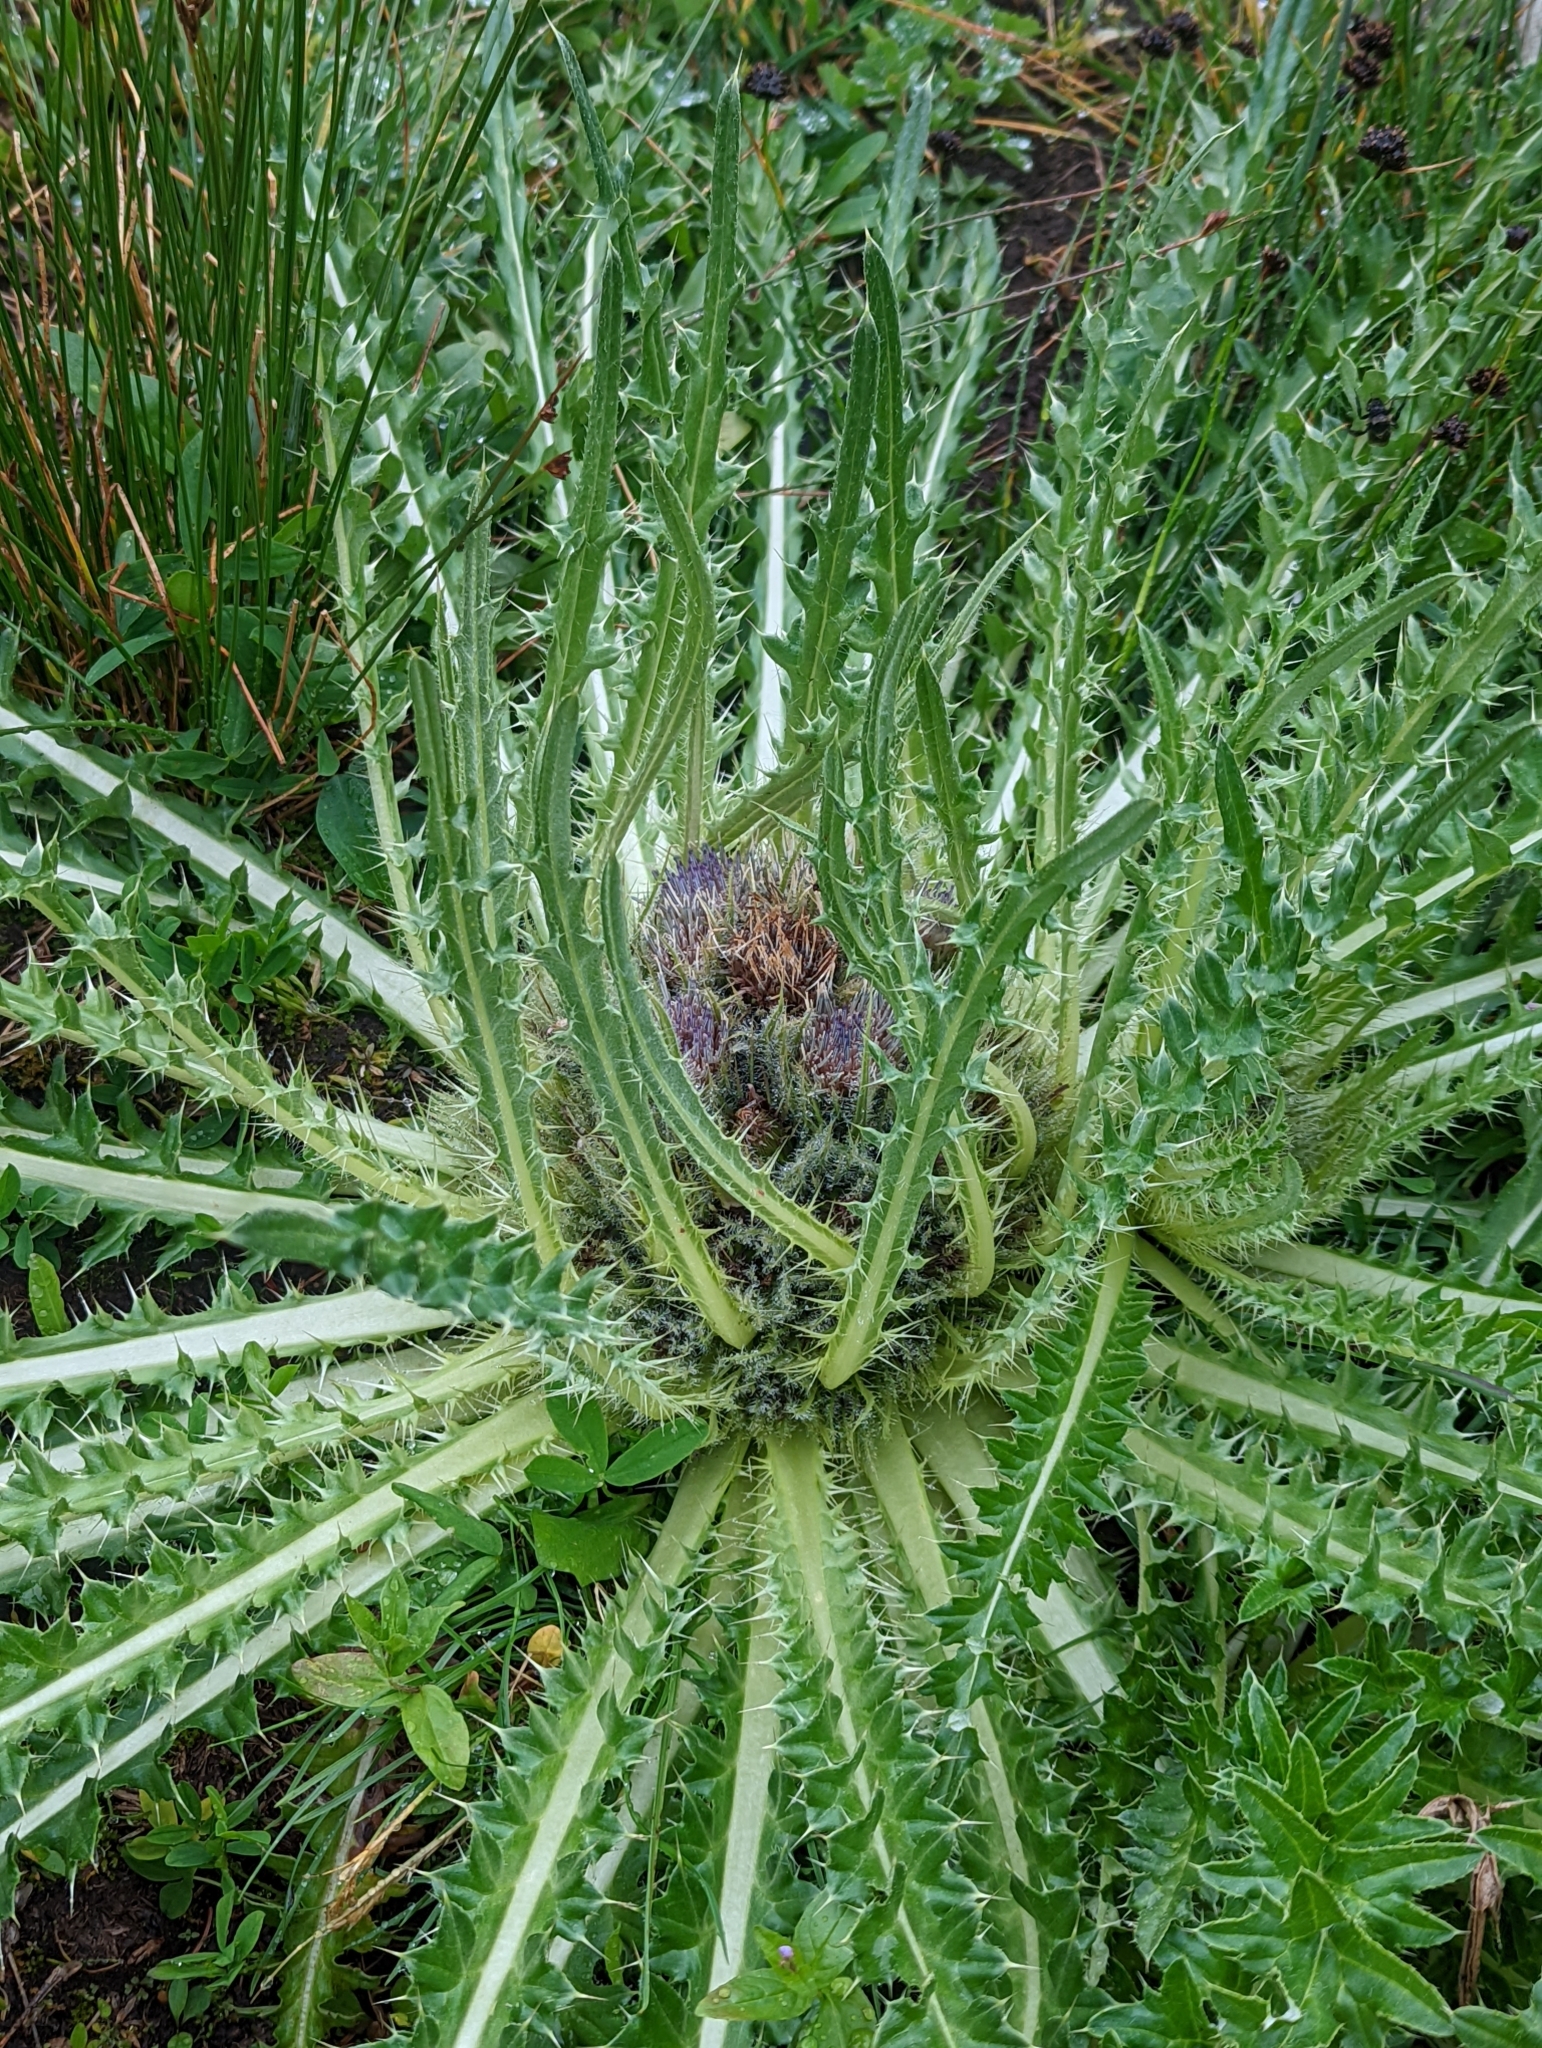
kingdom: Plantae
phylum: Tracheophyta
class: Magnoliopsida
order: Asterales
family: Asteraceae
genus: Cirsium
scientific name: Cirsium scariosum
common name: Meadow thistle
